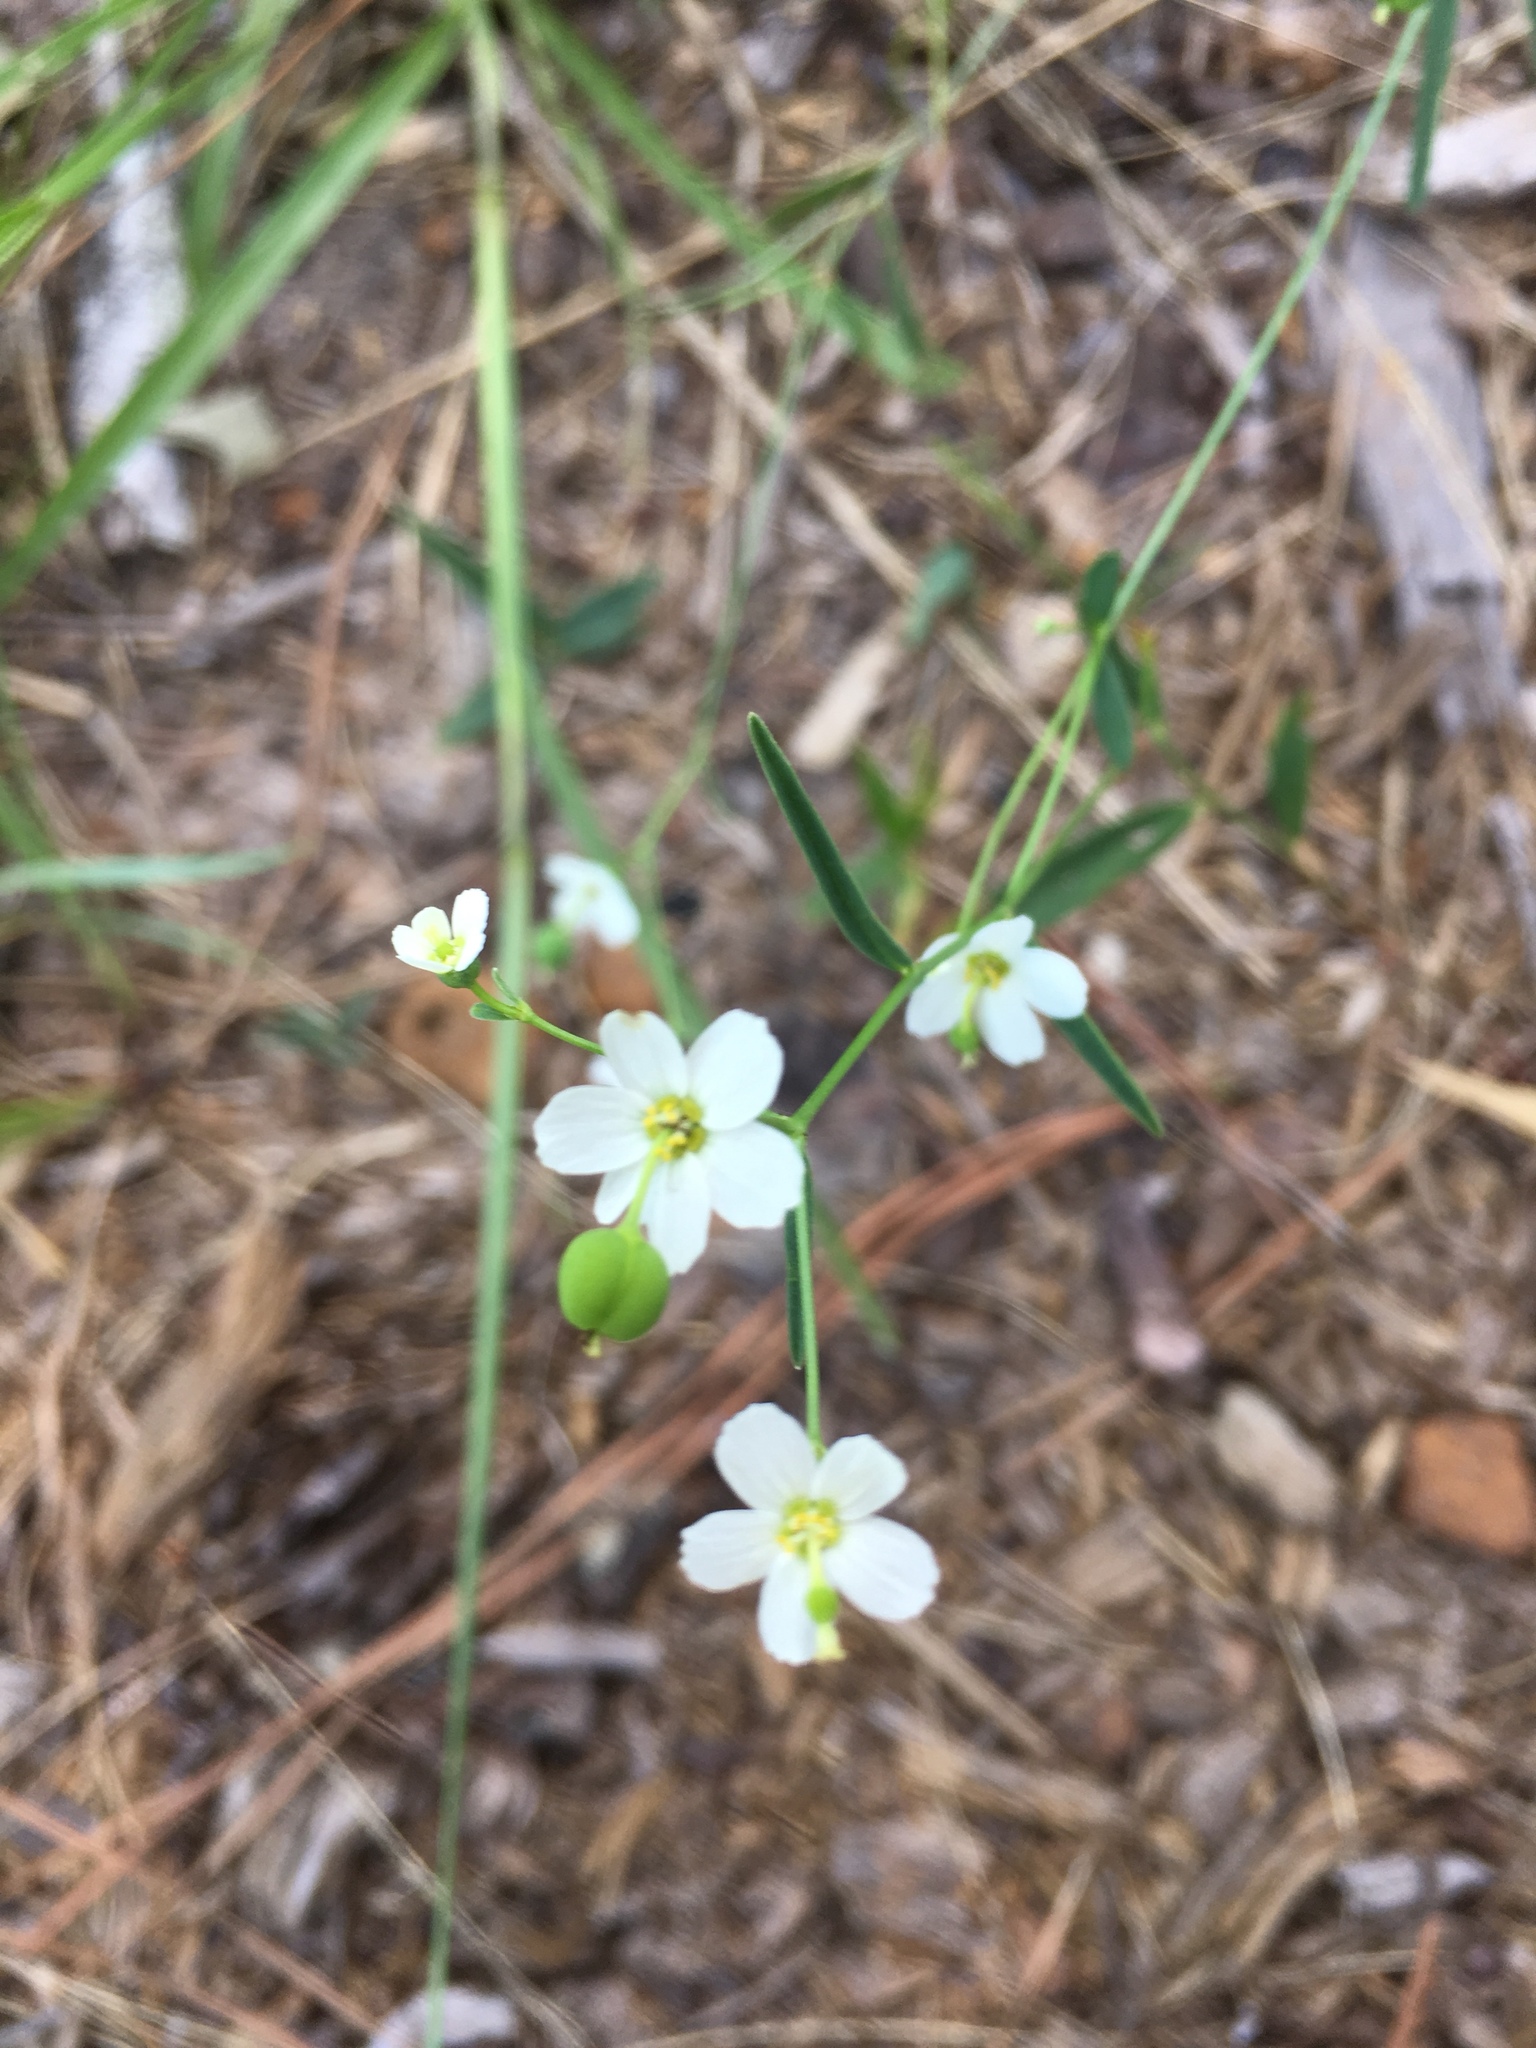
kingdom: Plantae
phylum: Tracheophyta
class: Magnoliopsida
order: Malpighiales
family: Euphorbiaceae
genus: Euphorbia
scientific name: Euphorbia corollata
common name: Flowering spurge
